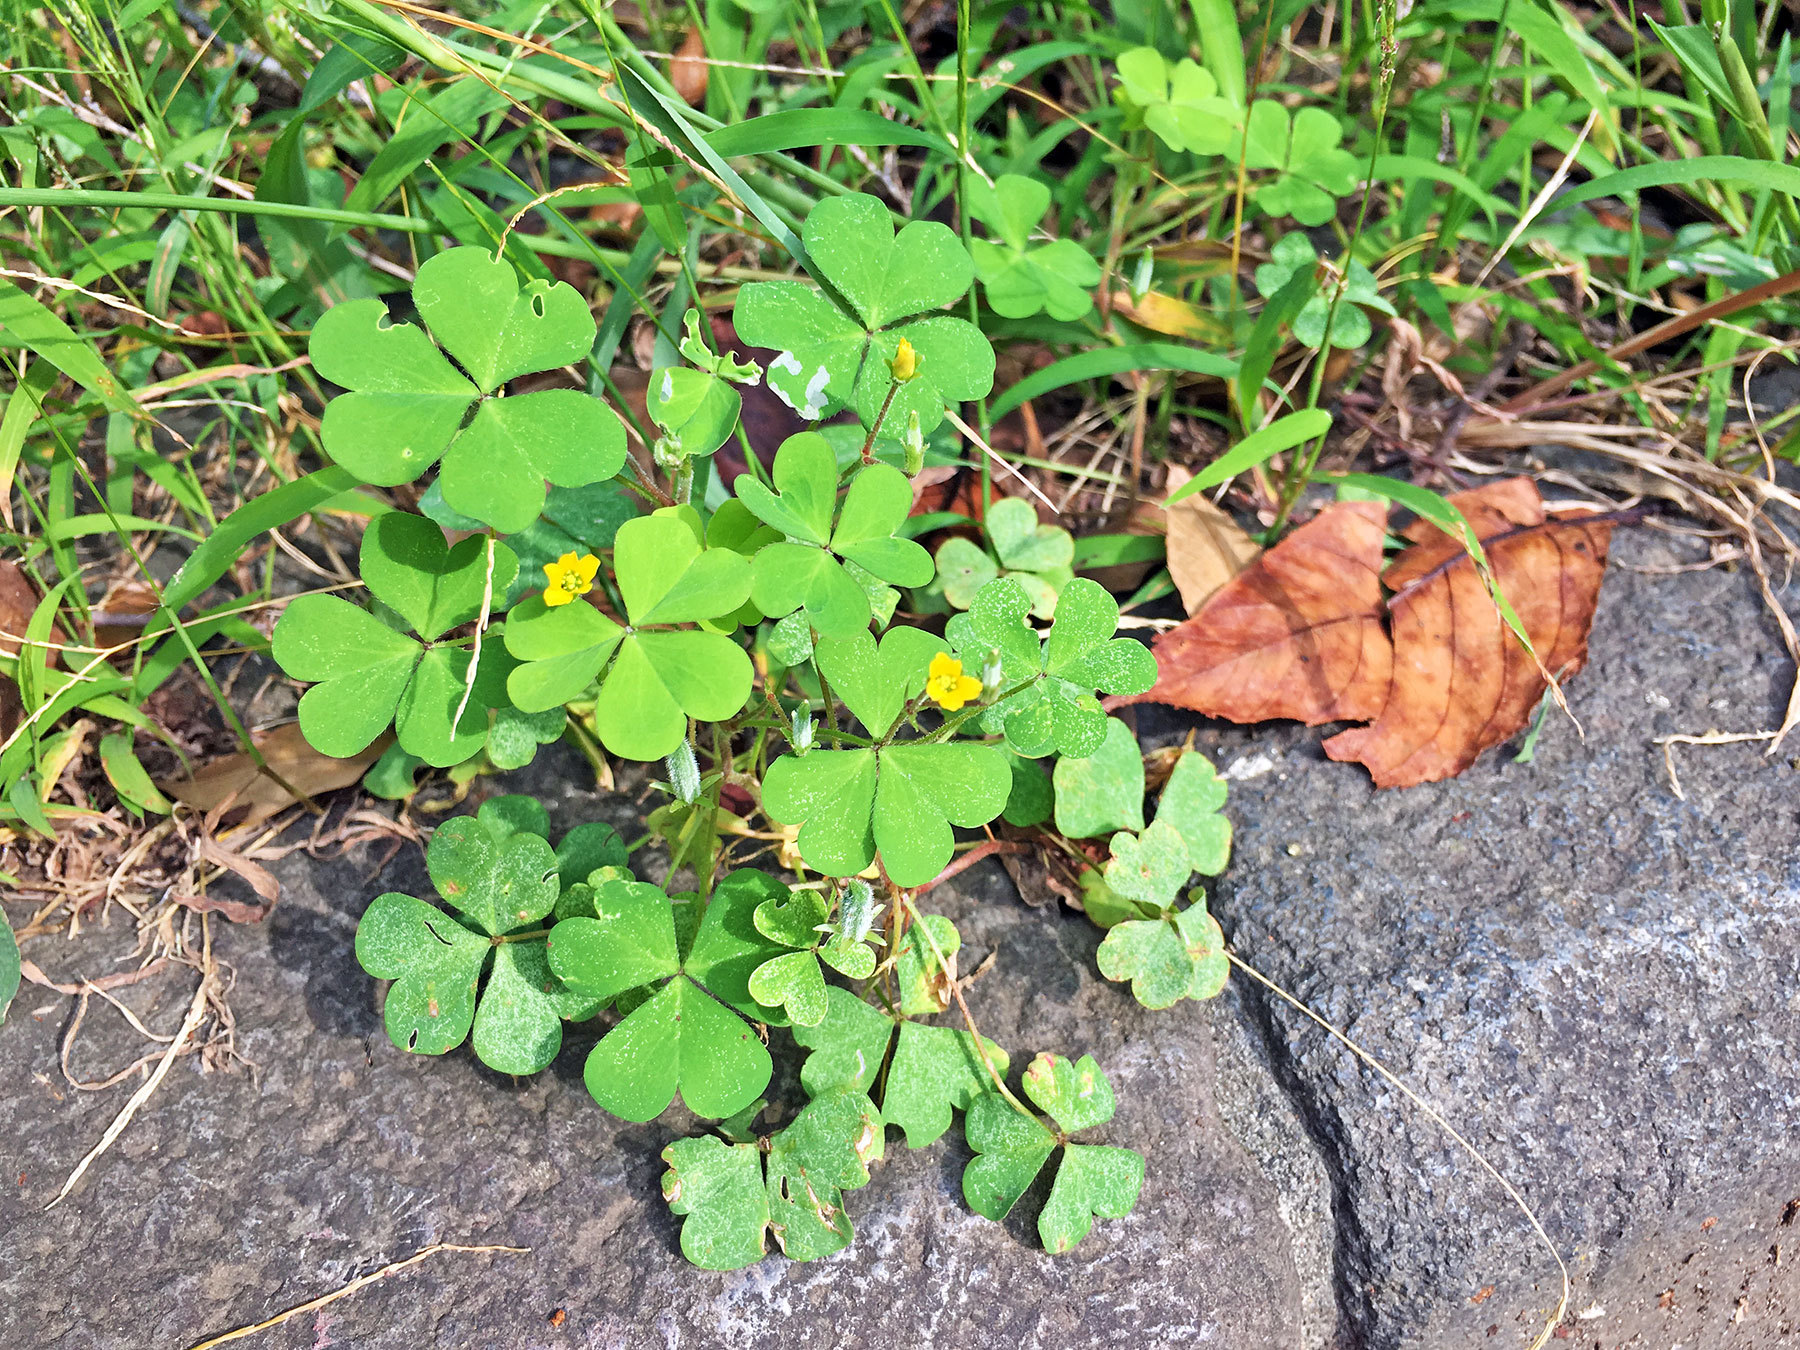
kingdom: Plantae
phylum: Tracheophyta
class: Magnoliopsida
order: Oxalidales
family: Oxalidaceae
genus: Oxalis
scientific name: Oxalis corniculata
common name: Procumbent yellow-sorrel
